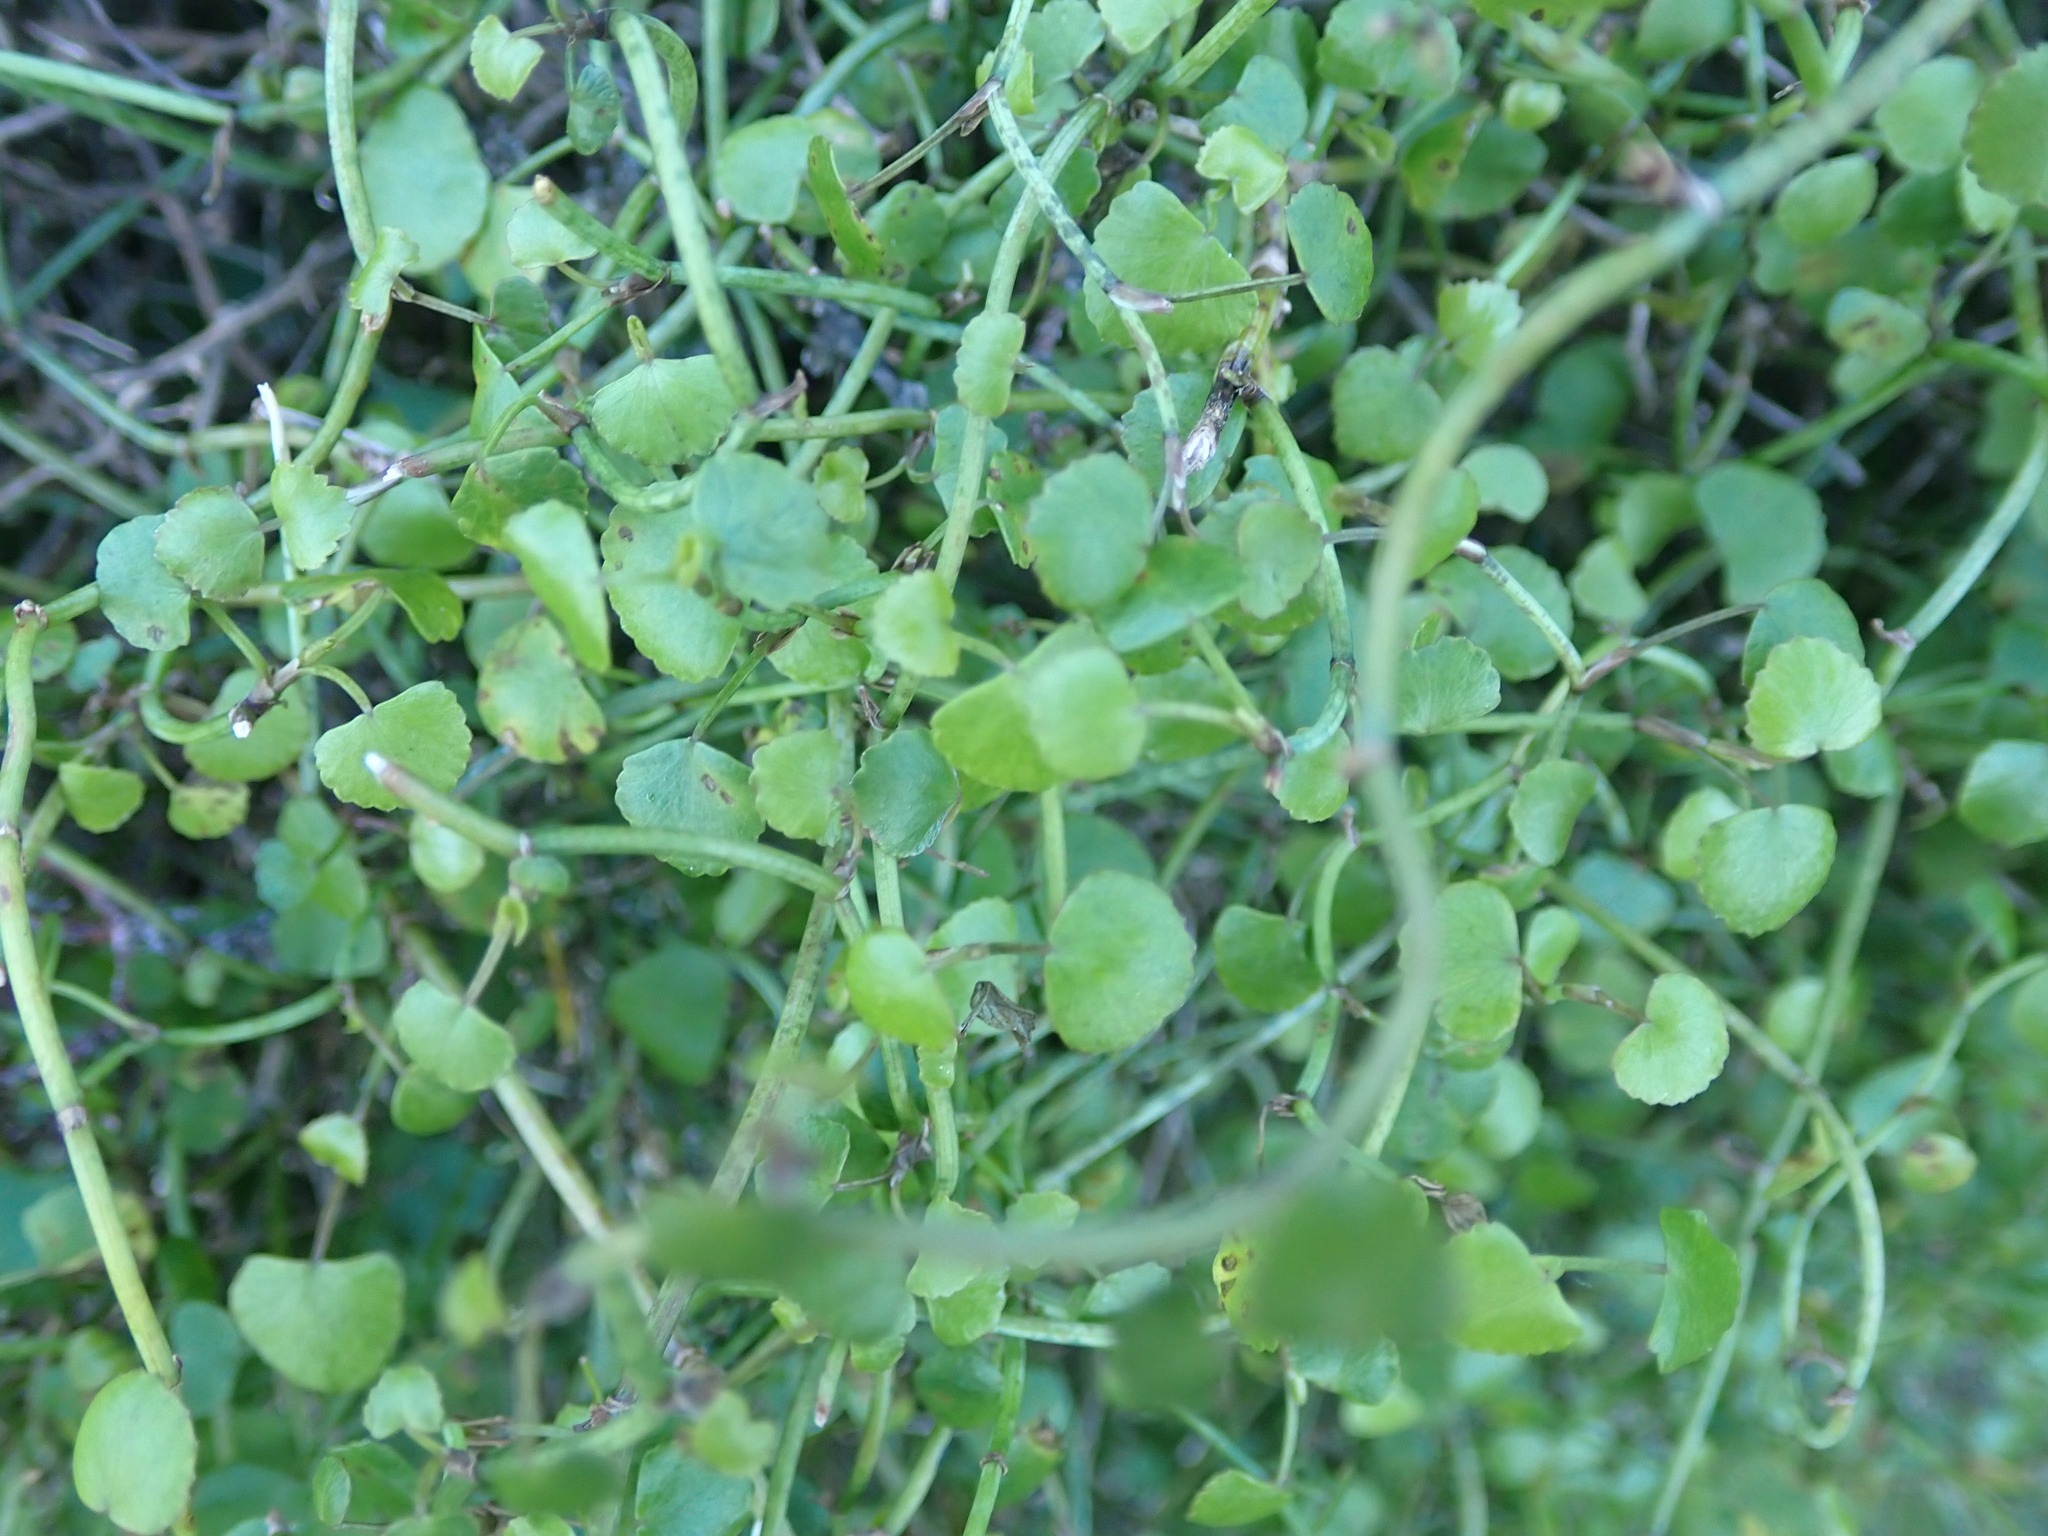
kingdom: Plantae
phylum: Tracheophyta
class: Magnoliopsida
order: Apiales
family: Apiaceae
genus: Scandia
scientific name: Scandia geniculata
